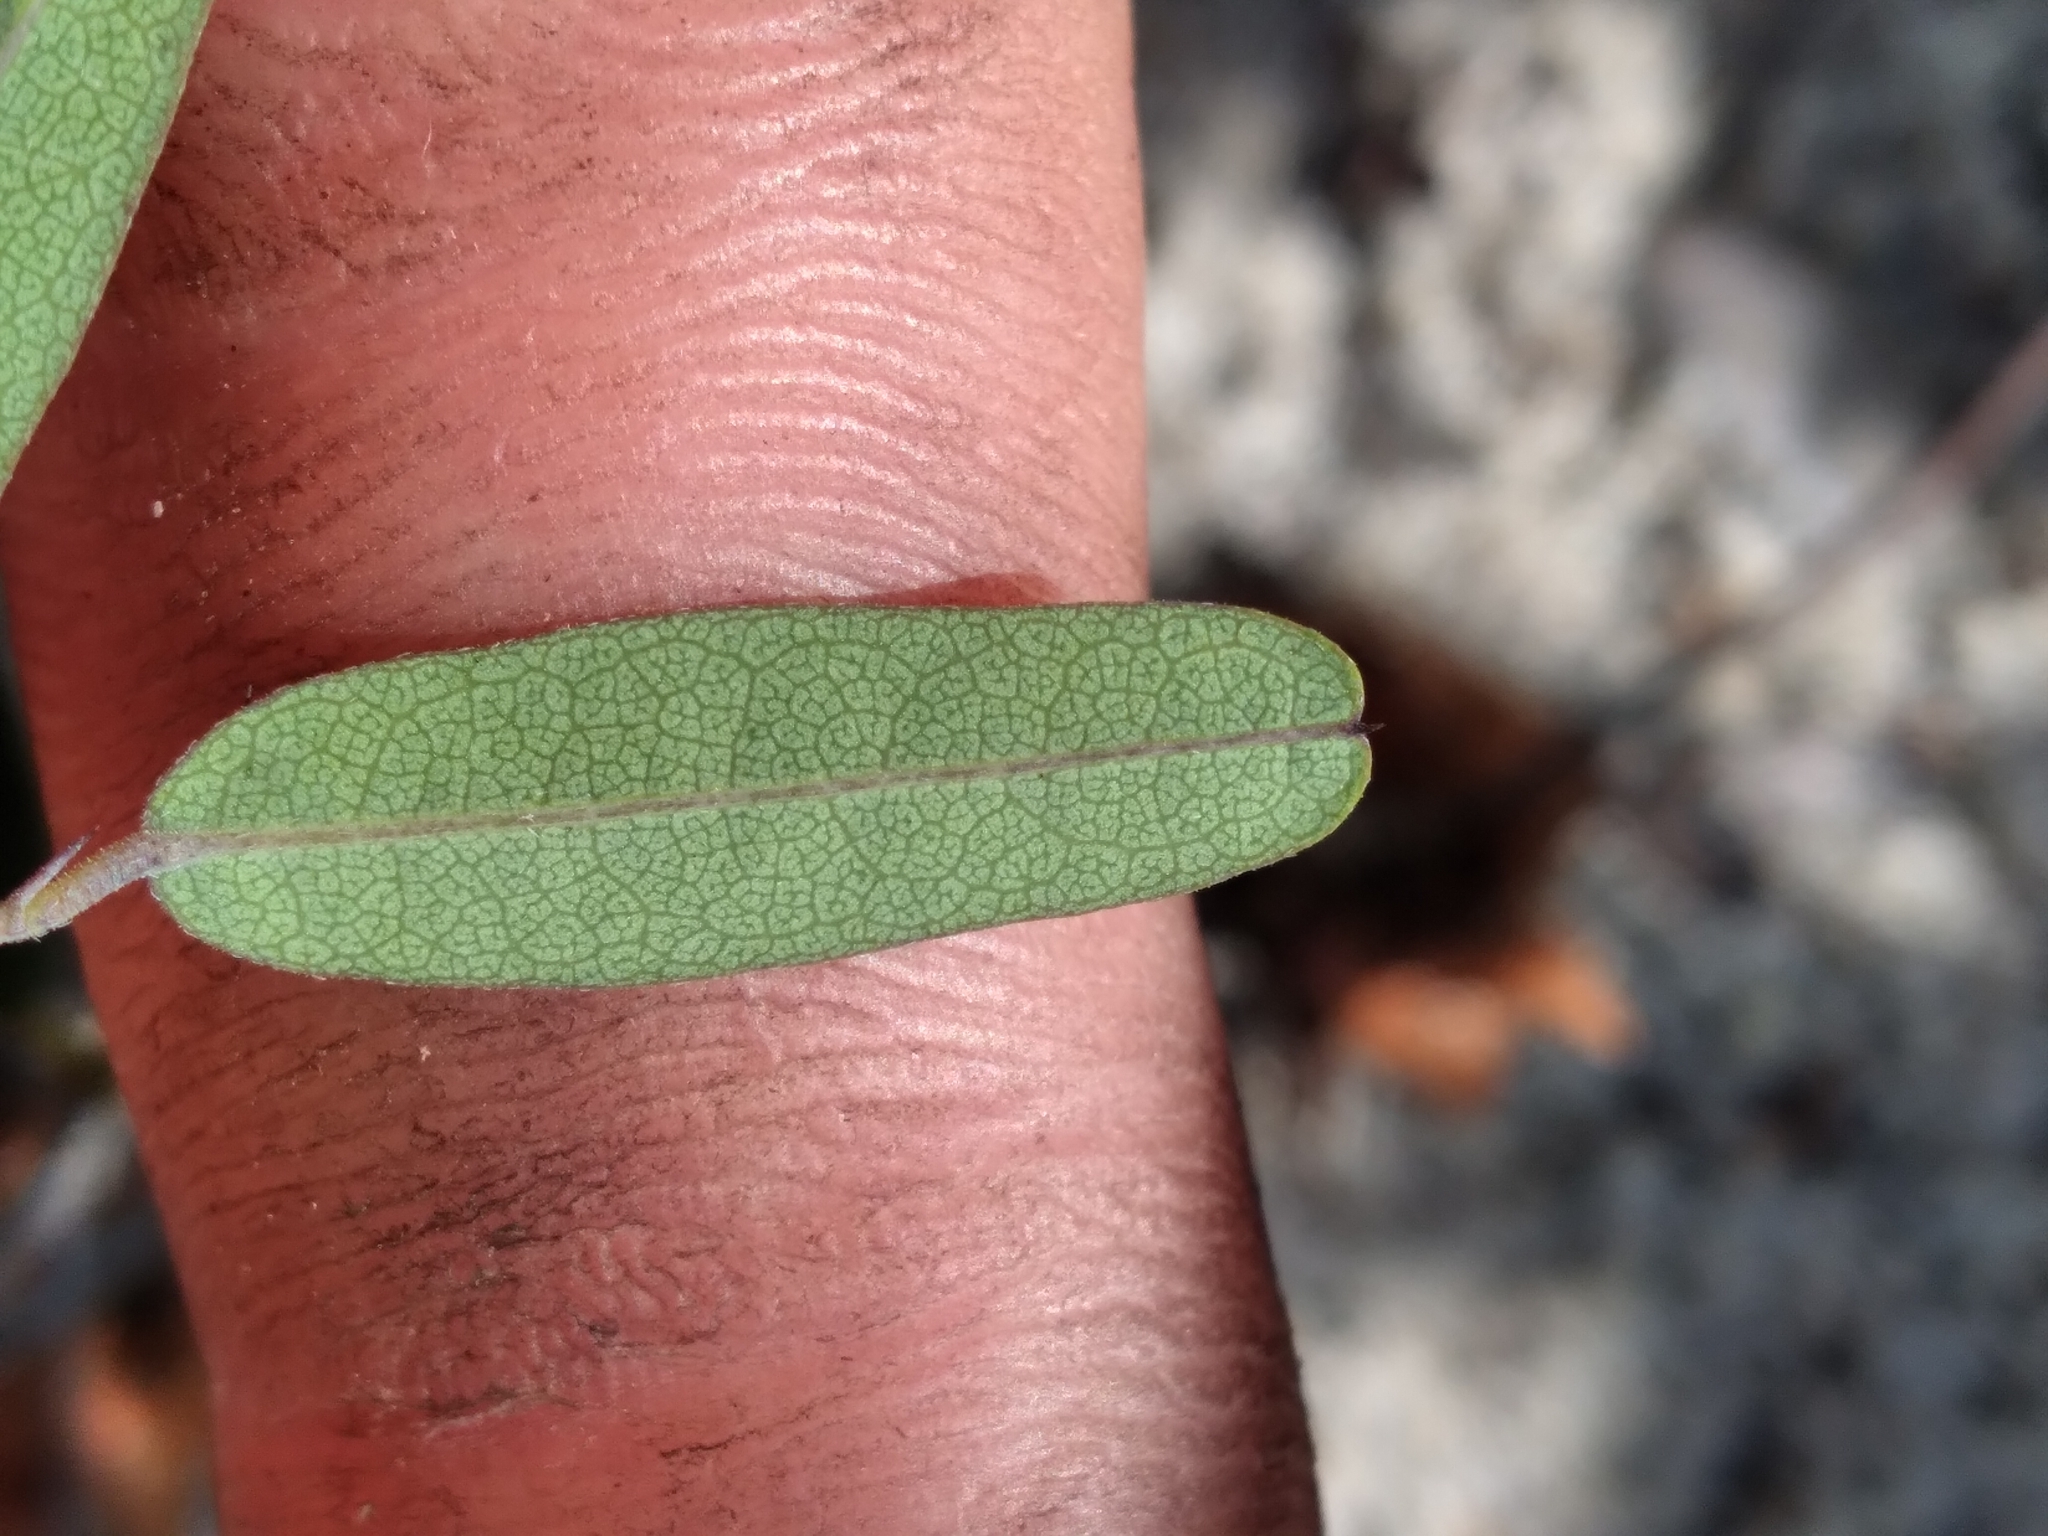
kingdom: Plantae
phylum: Tracheophyta
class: Magnoliopsida
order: Fabales
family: Fabaceae
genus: Clitoria
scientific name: Clitoria fragrans
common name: Pigeon-wings
